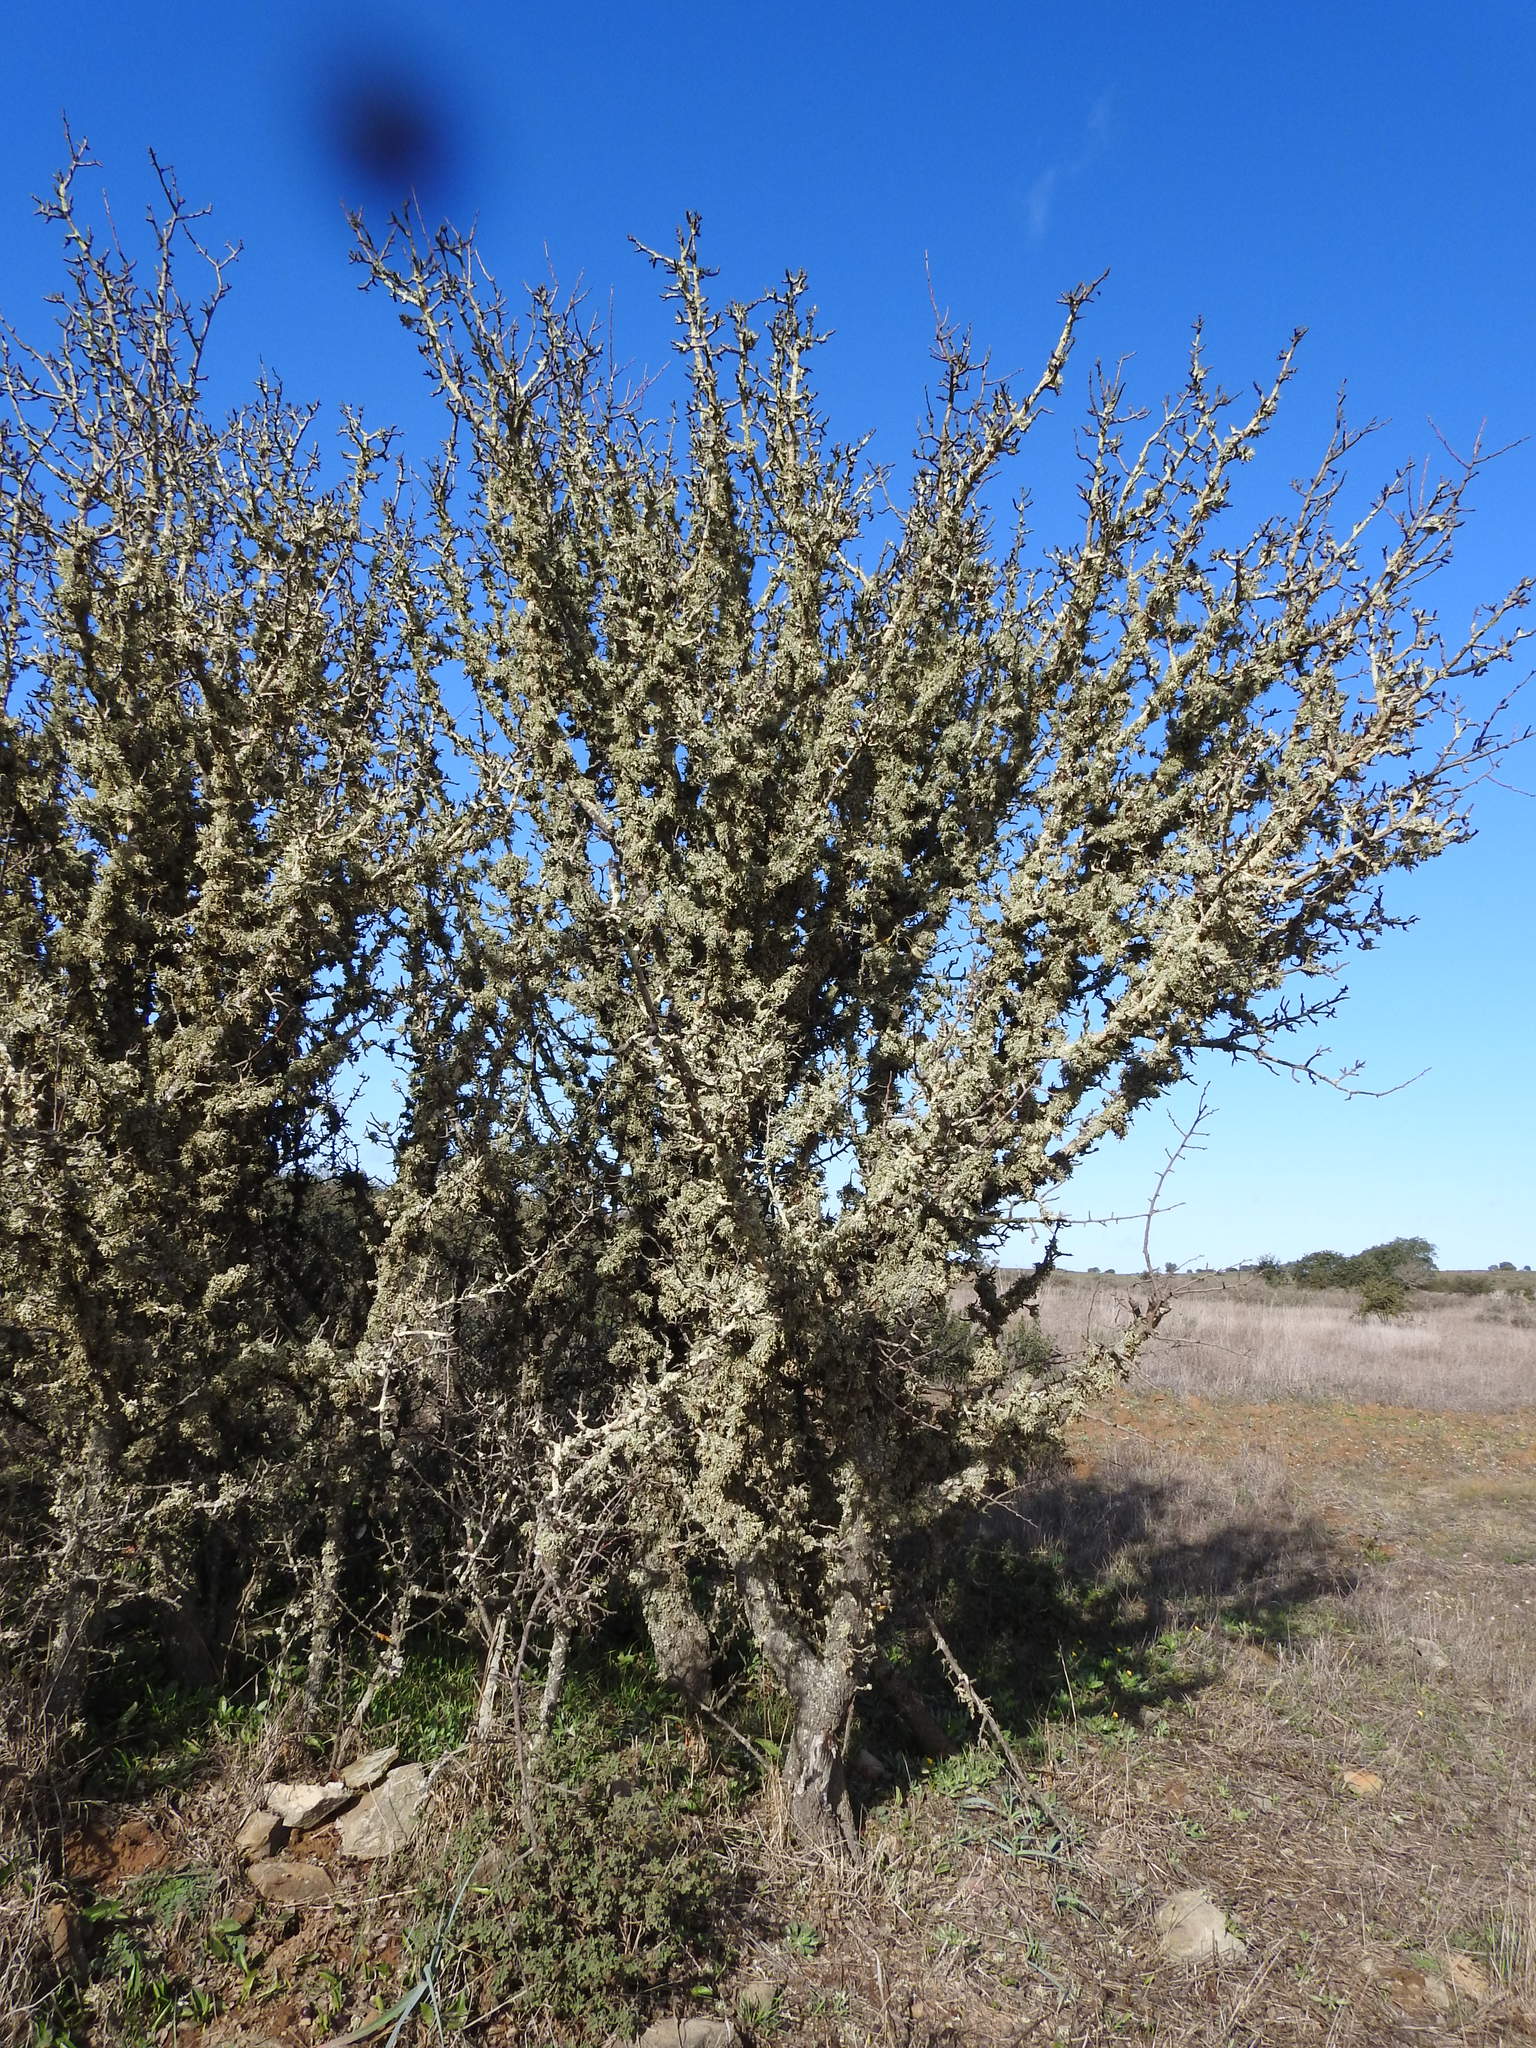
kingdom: Plantae
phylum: Tracheophyta
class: Magnoliopsida
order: Rosales
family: Rosaceae
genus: Pyrus
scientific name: Pyrus bourgaeana
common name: Iberian pear
